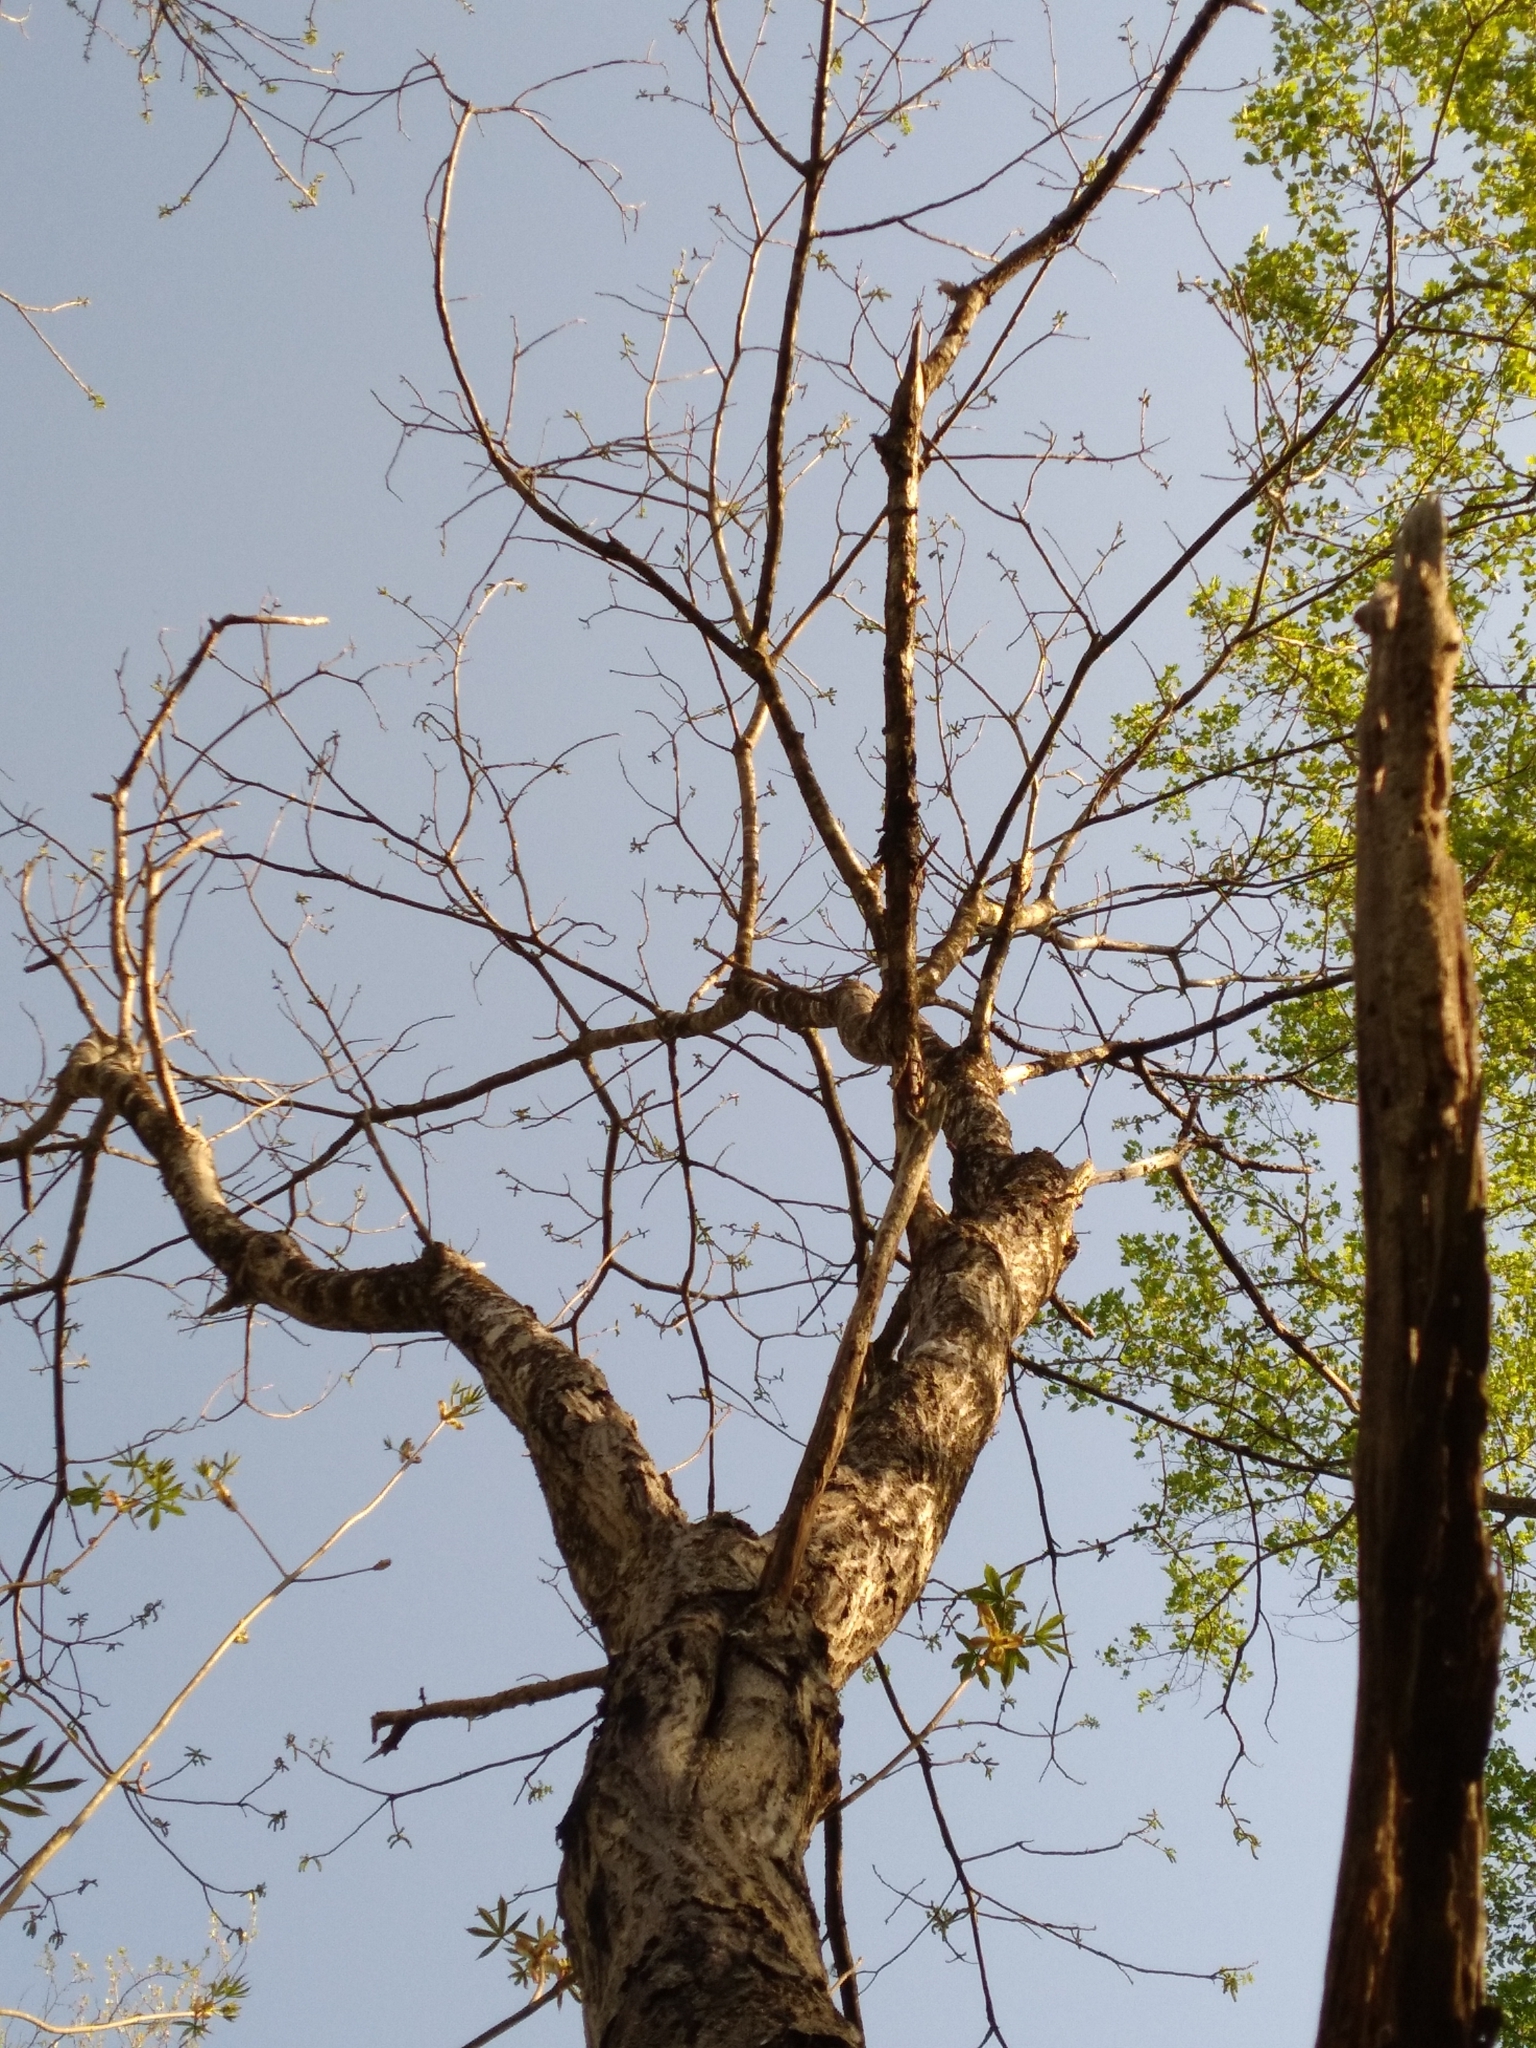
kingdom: Plantae
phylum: Tracheophyta
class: Magnoliopsida
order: Fagales
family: Juglandaceae
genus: Juglans
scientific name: Juglans cinerea
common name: Butternut
